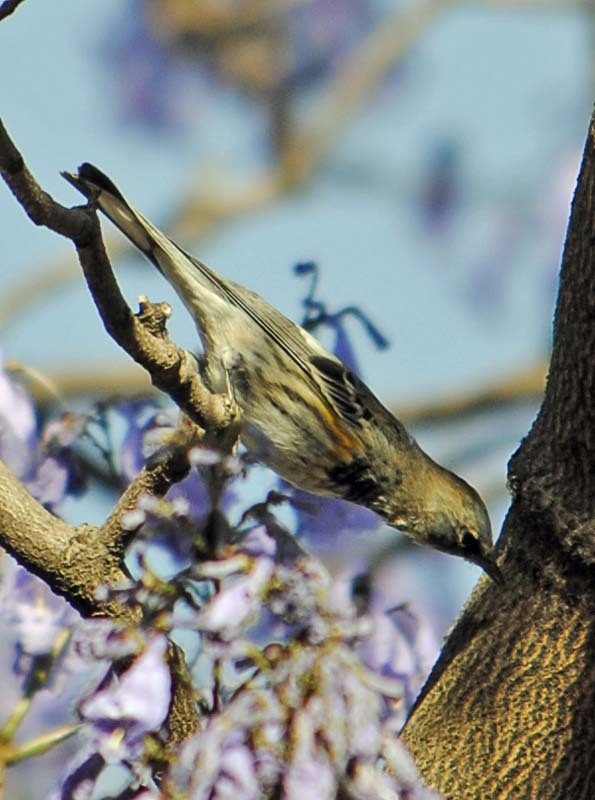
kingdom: Animalia
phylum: Chordata
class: Aves
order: Passeriformes
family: Parulidae
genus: Setophaga
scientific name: Setophaga coronata
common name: Myrtle warbler
